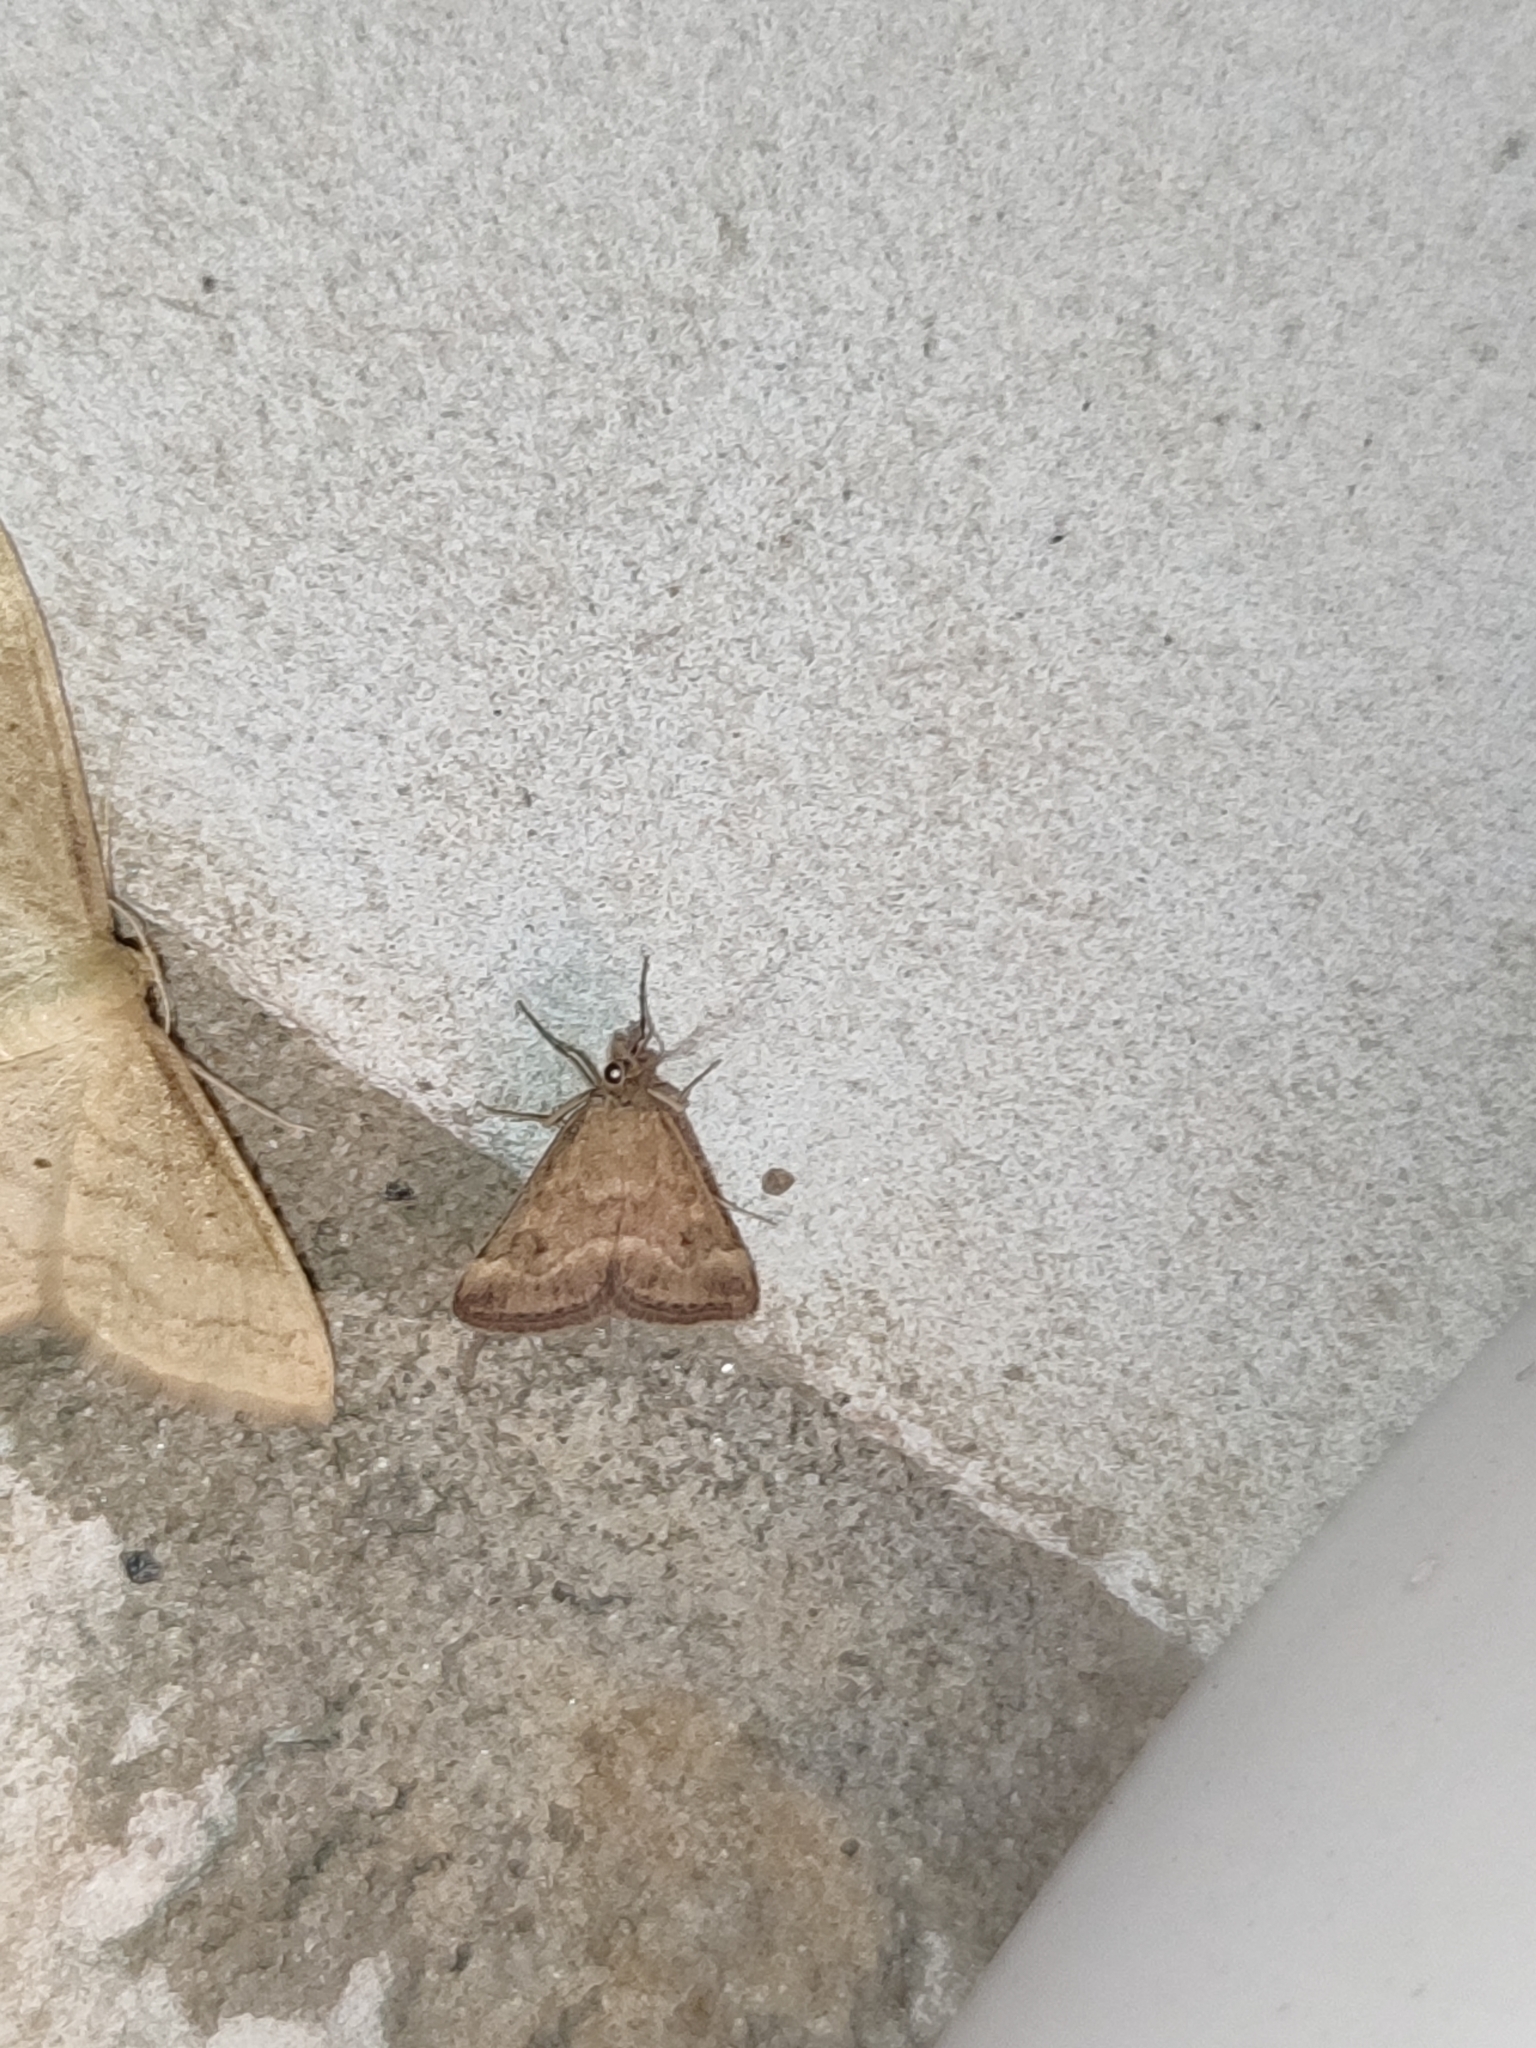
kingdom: Animalia
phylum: Arthropoda
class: Insecta
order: Lepidoptera
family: Crambidae
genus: Pyrausta
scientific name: Pyrausta despicata
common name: Straw-barred pearl
